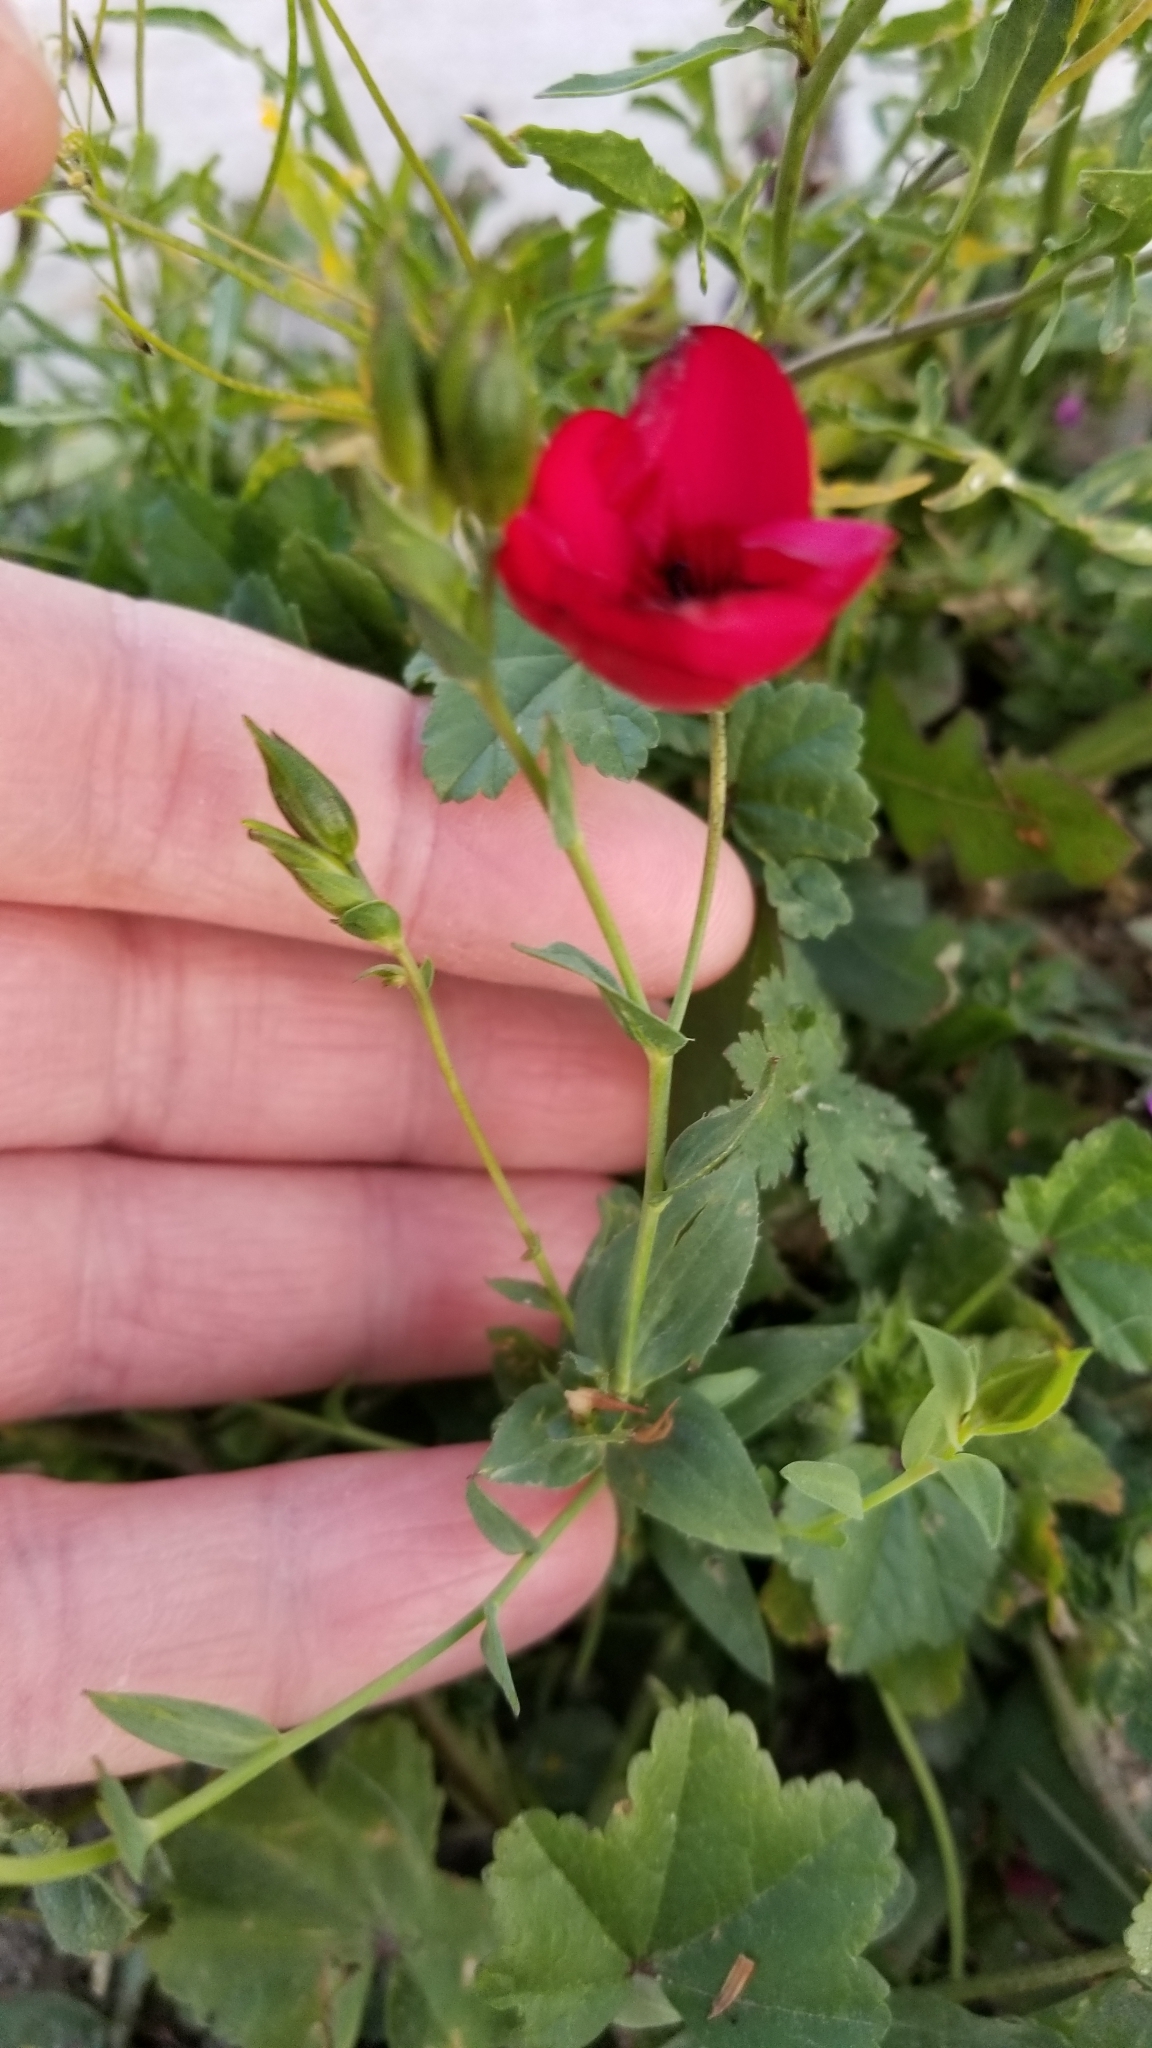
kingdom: Plantae
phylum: Tracheophyta
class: Magnoliopsida
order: Malpighiales
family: Linaceae
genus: Linum
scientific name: Linum grandiflorum
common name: Crimson flax
